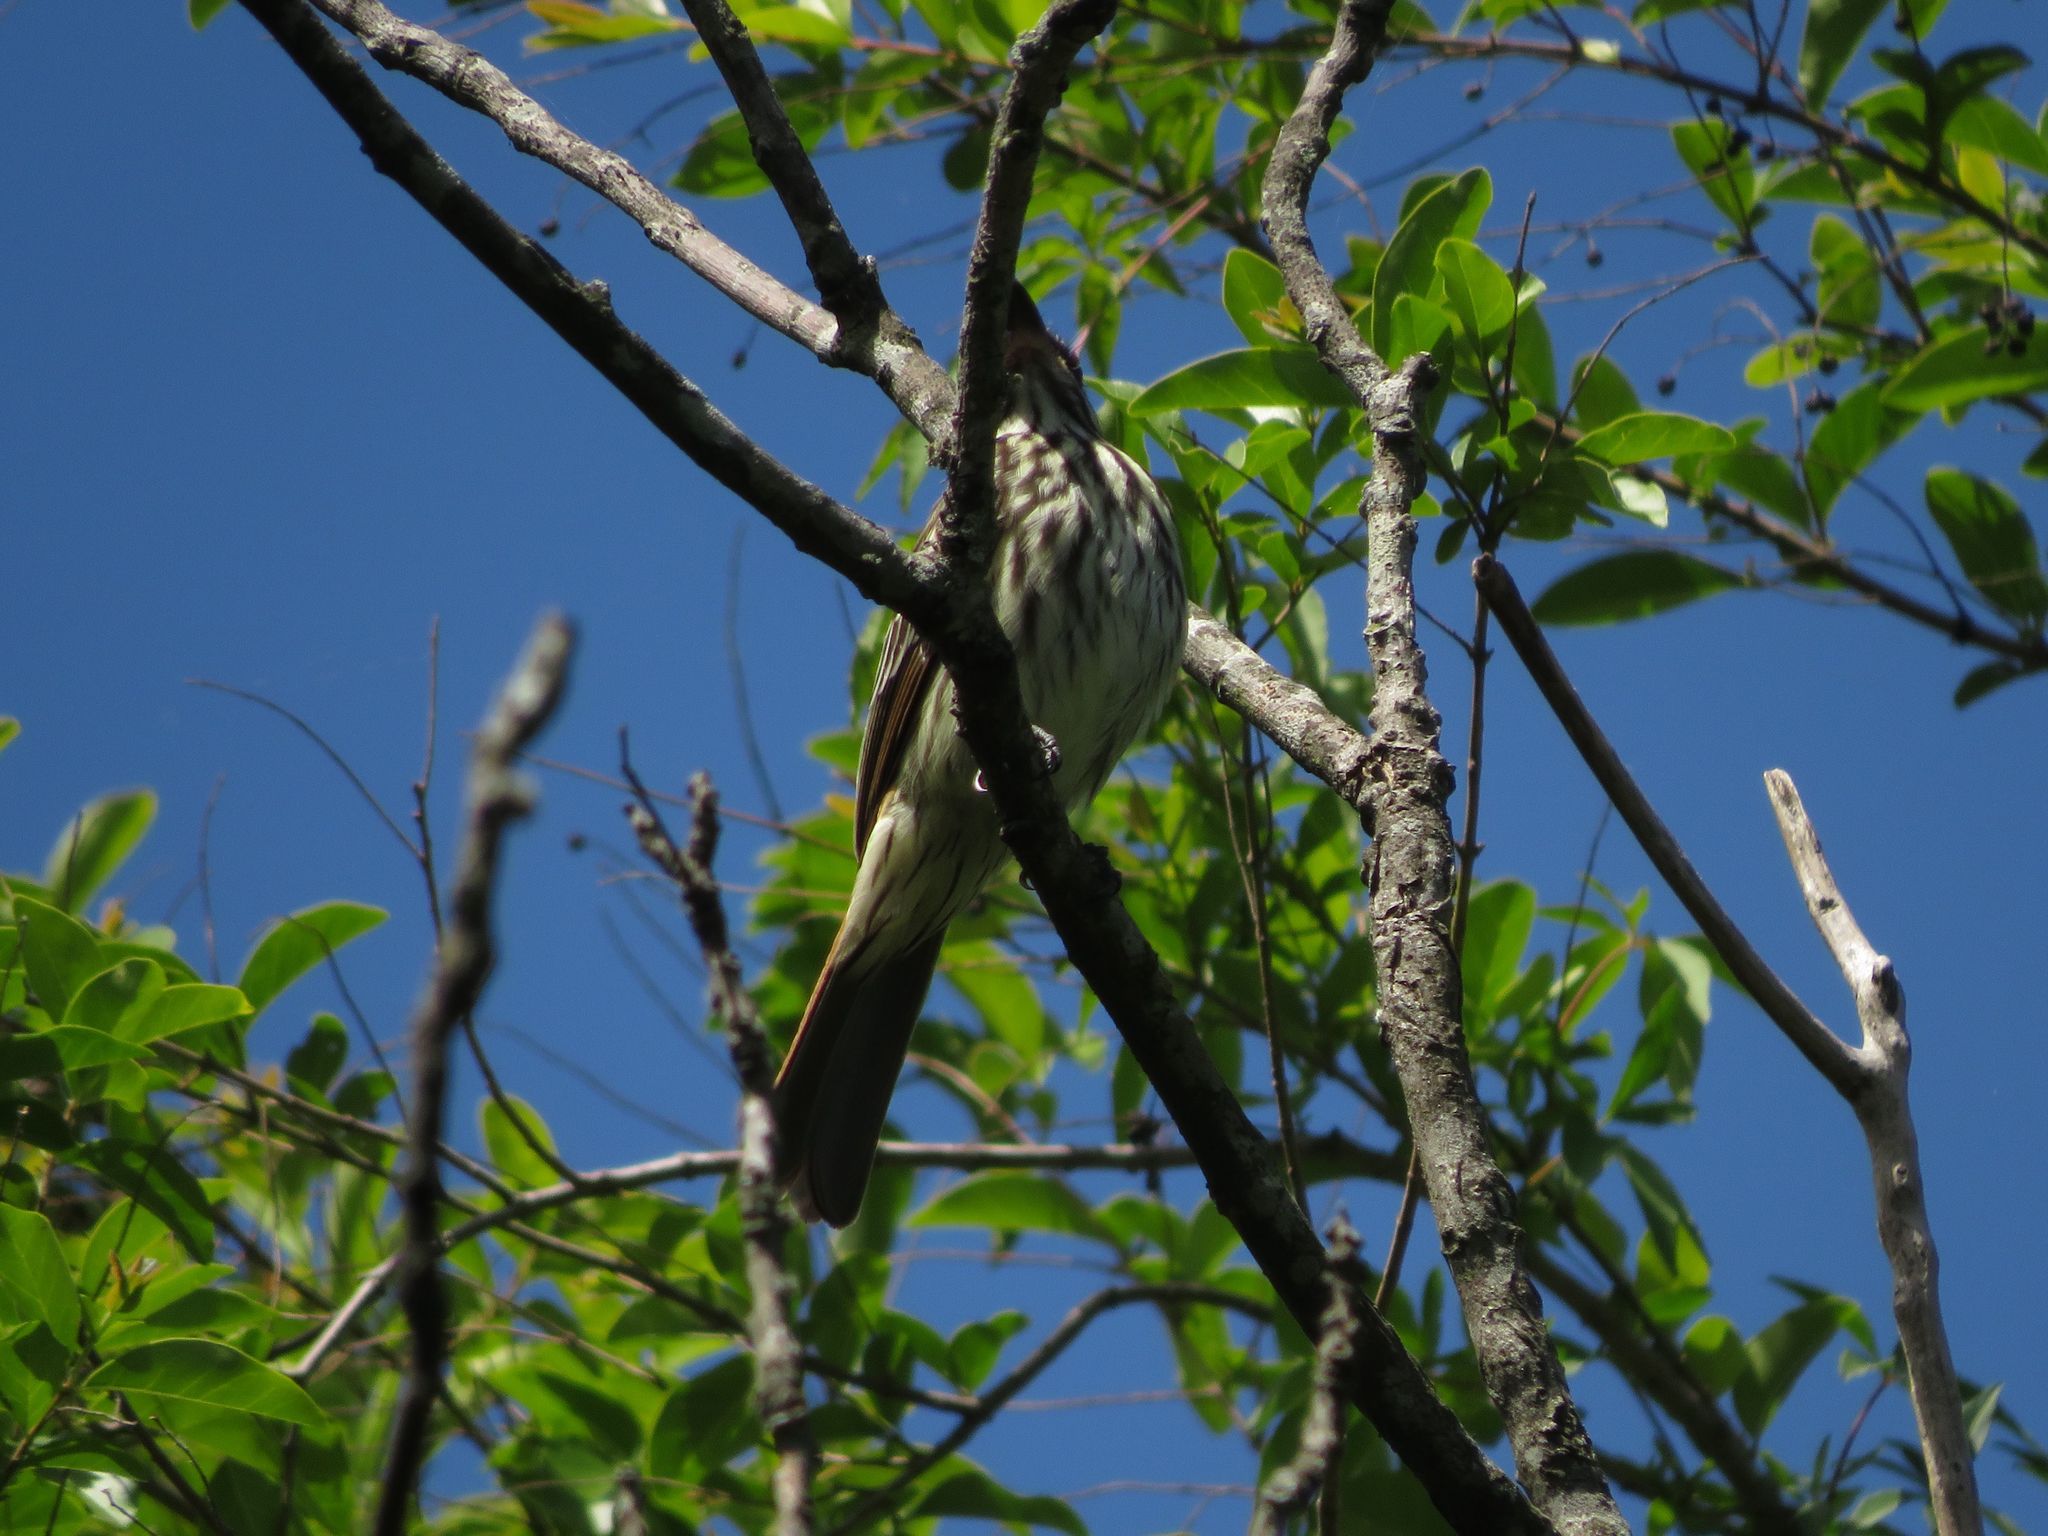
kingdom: Animalia
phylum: Chordata
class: Aves
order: Passeriformes
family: Tyrannidae
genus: Myiodynastes
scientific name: Myiodynastes maculatus
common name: Streaked flycatcher
